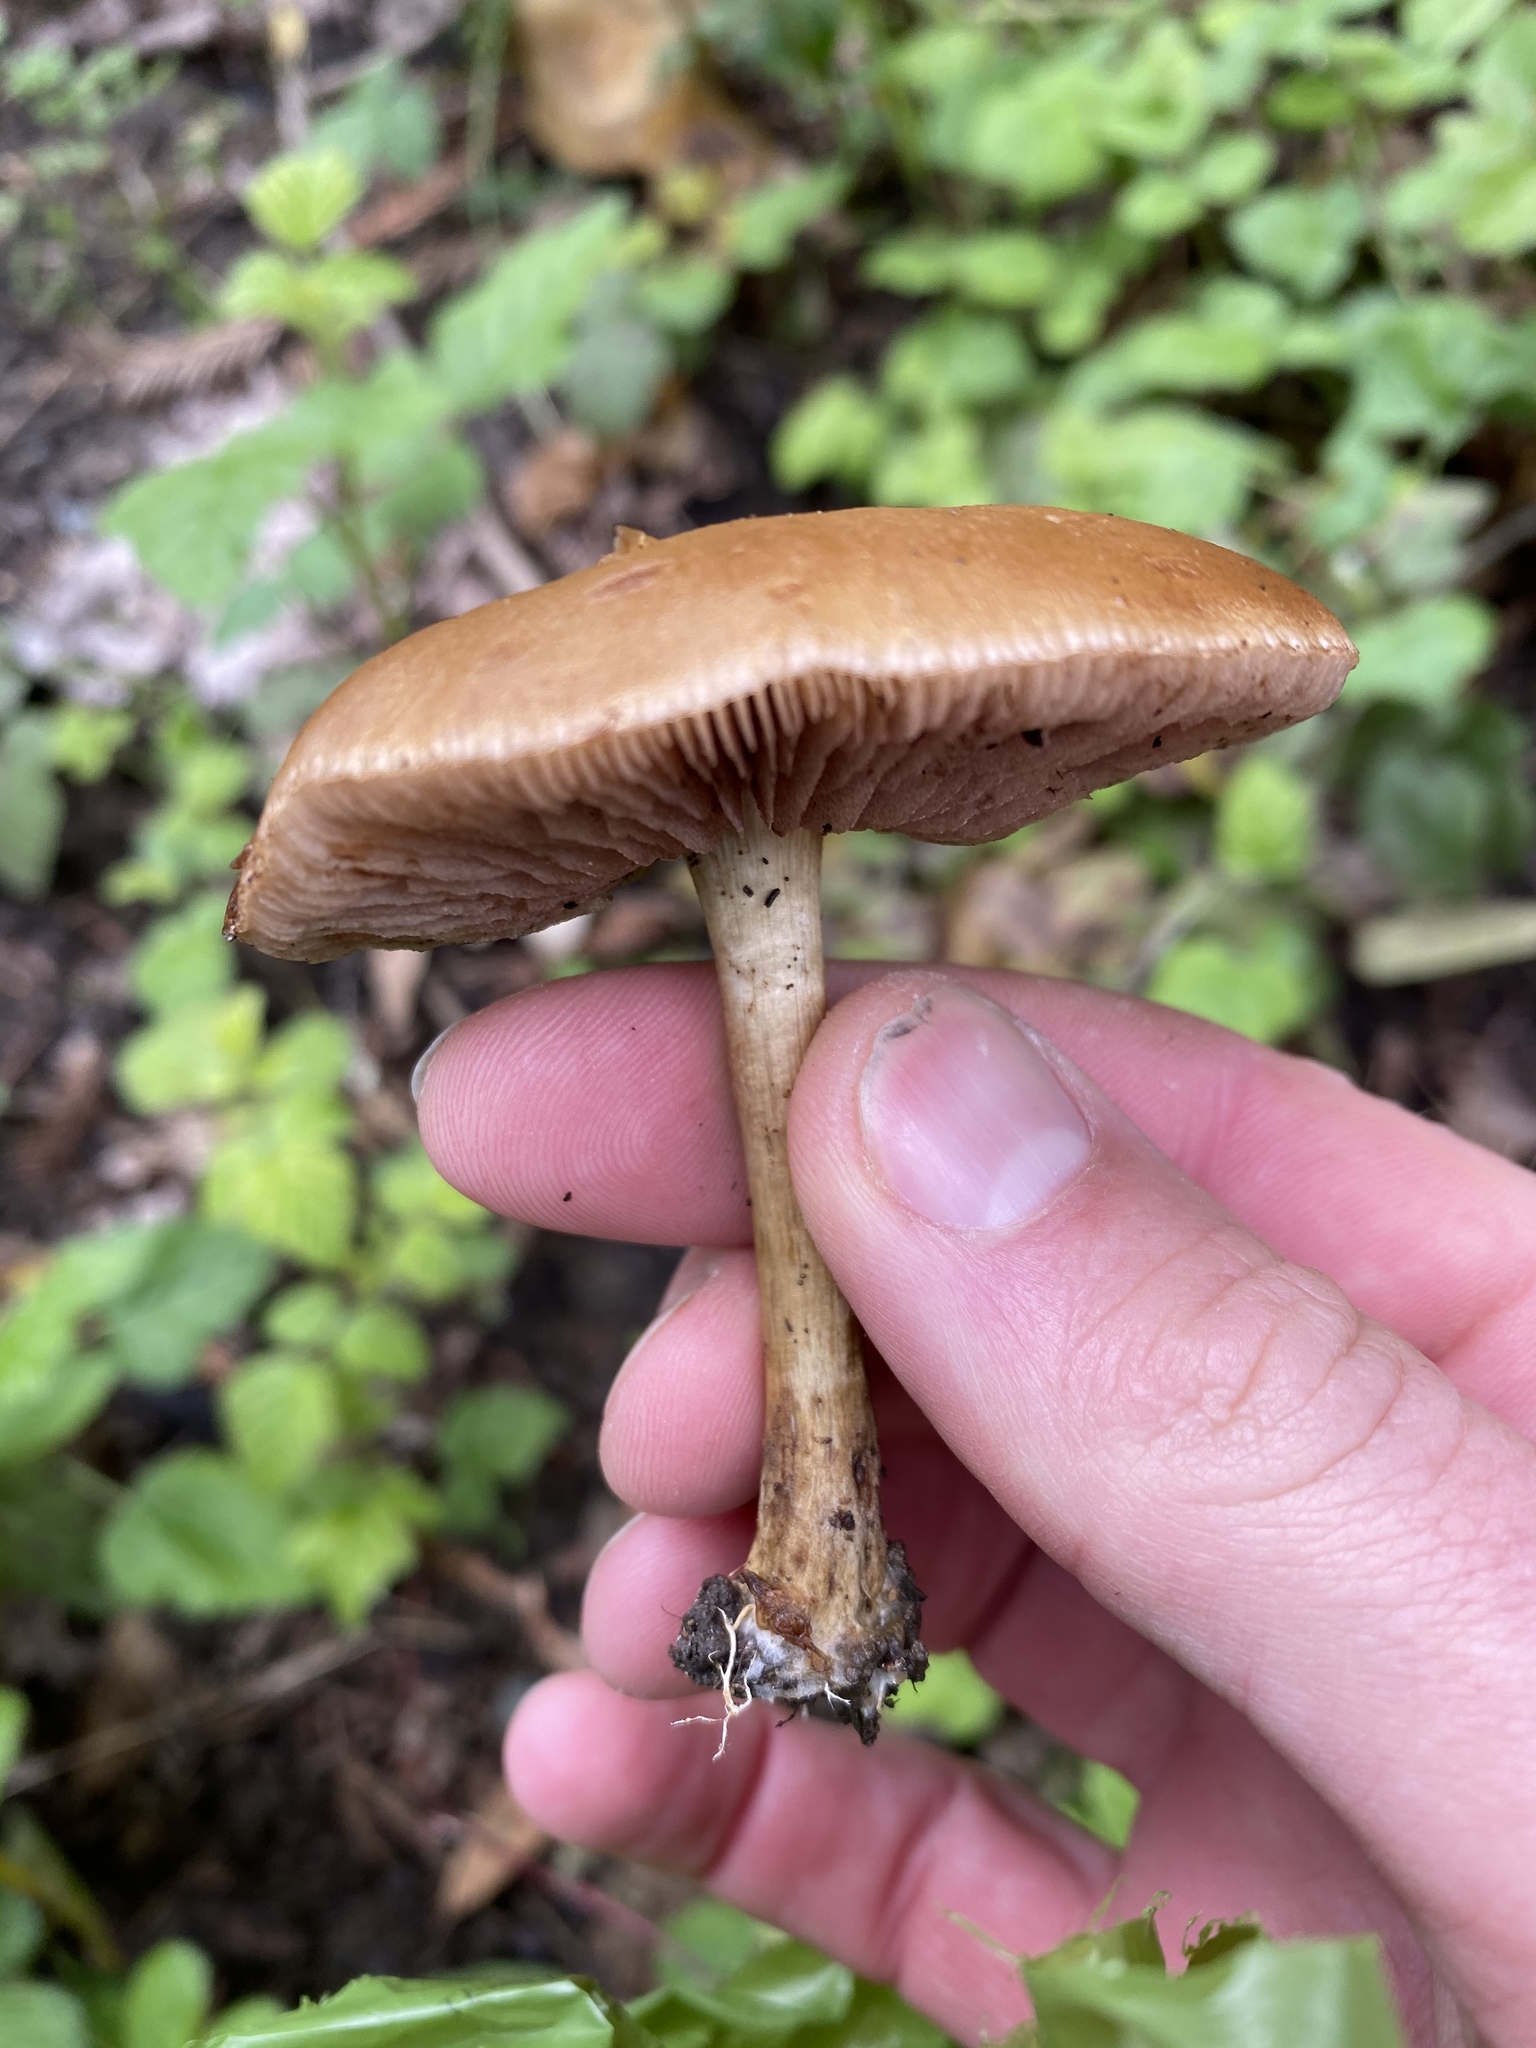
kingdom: Fungi
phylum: Basidiomycota
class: Agaricomycetes
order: Agaricales
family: Strophariaceae
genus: Agrocybe
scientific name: Agrocybe putaminum
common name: Mulch fieldcap
